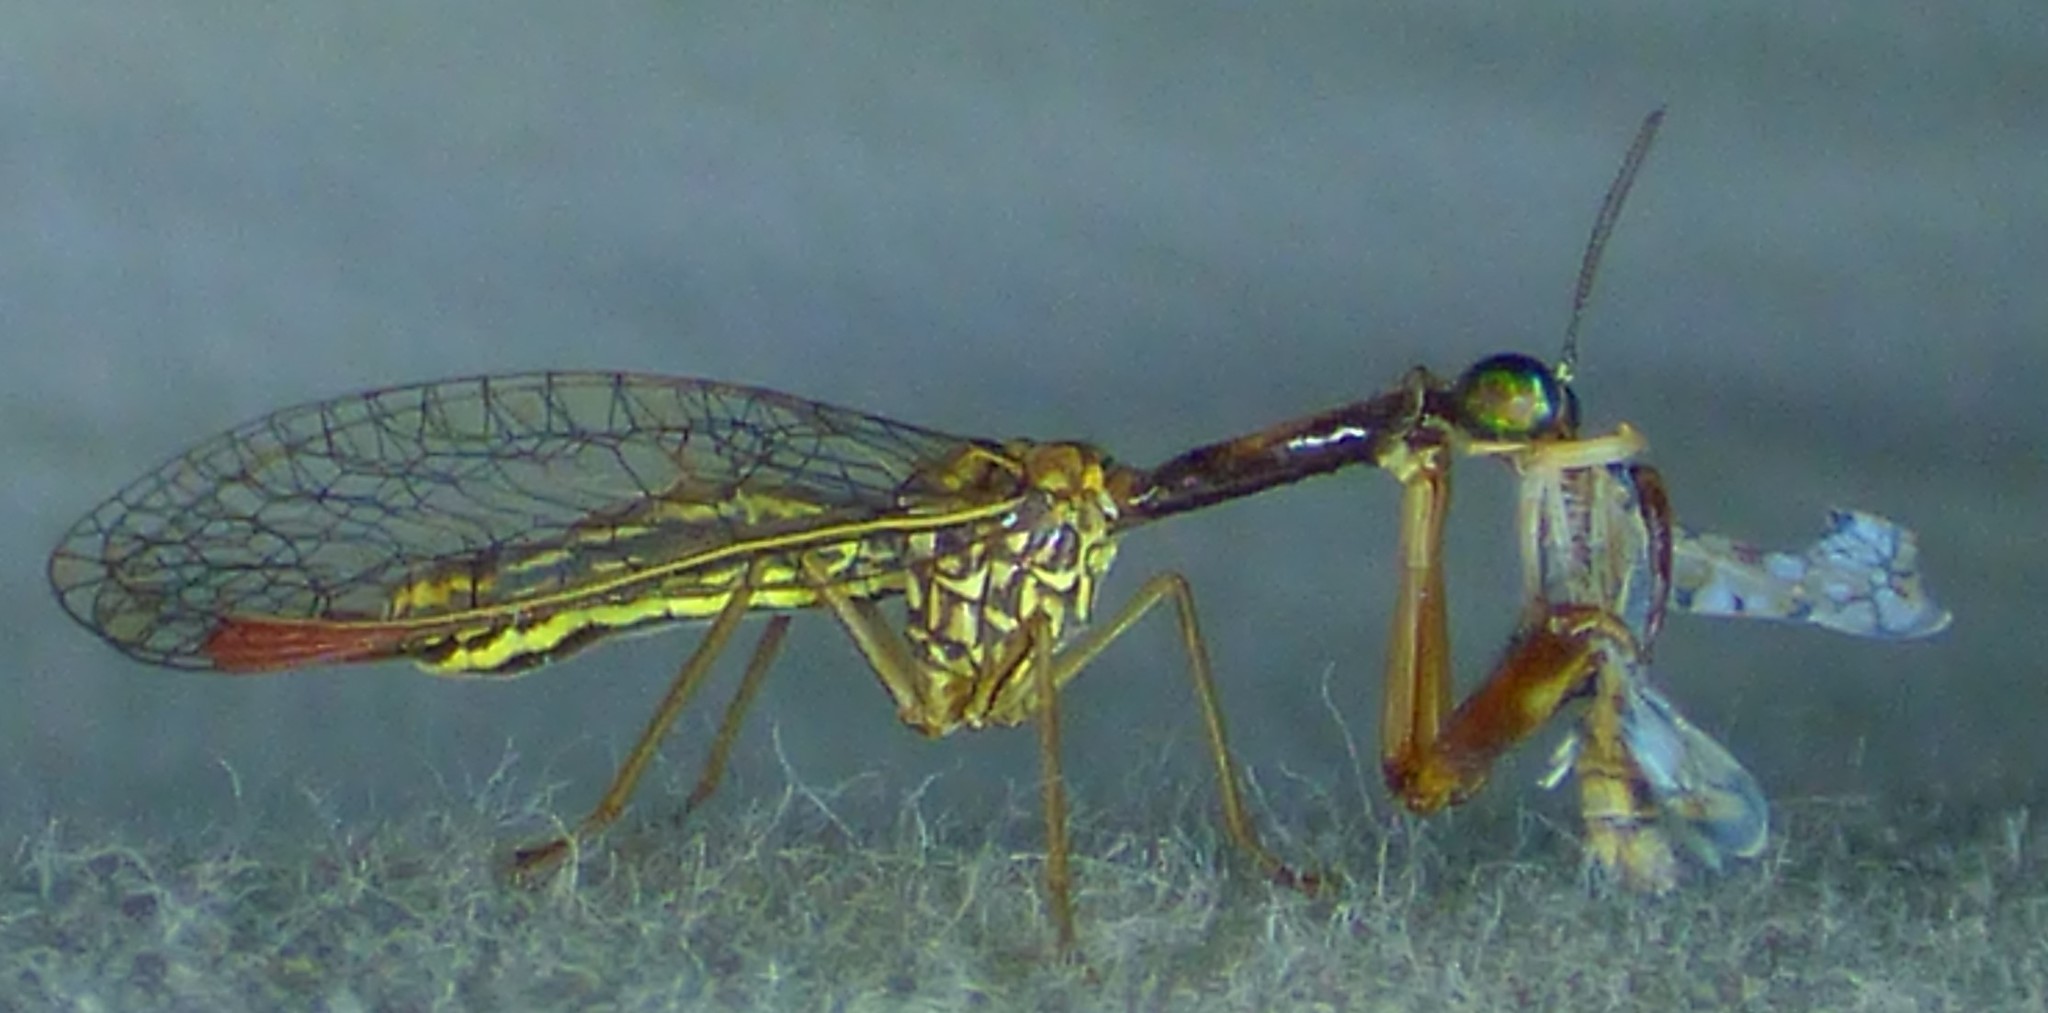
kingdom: Animalia
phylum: Arthropoda
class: Insecta
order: Neuroptera
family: Mantispidae
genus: Leptomantispa
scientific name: Leptomantispa pulchella
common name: Stevens's mantidfly
